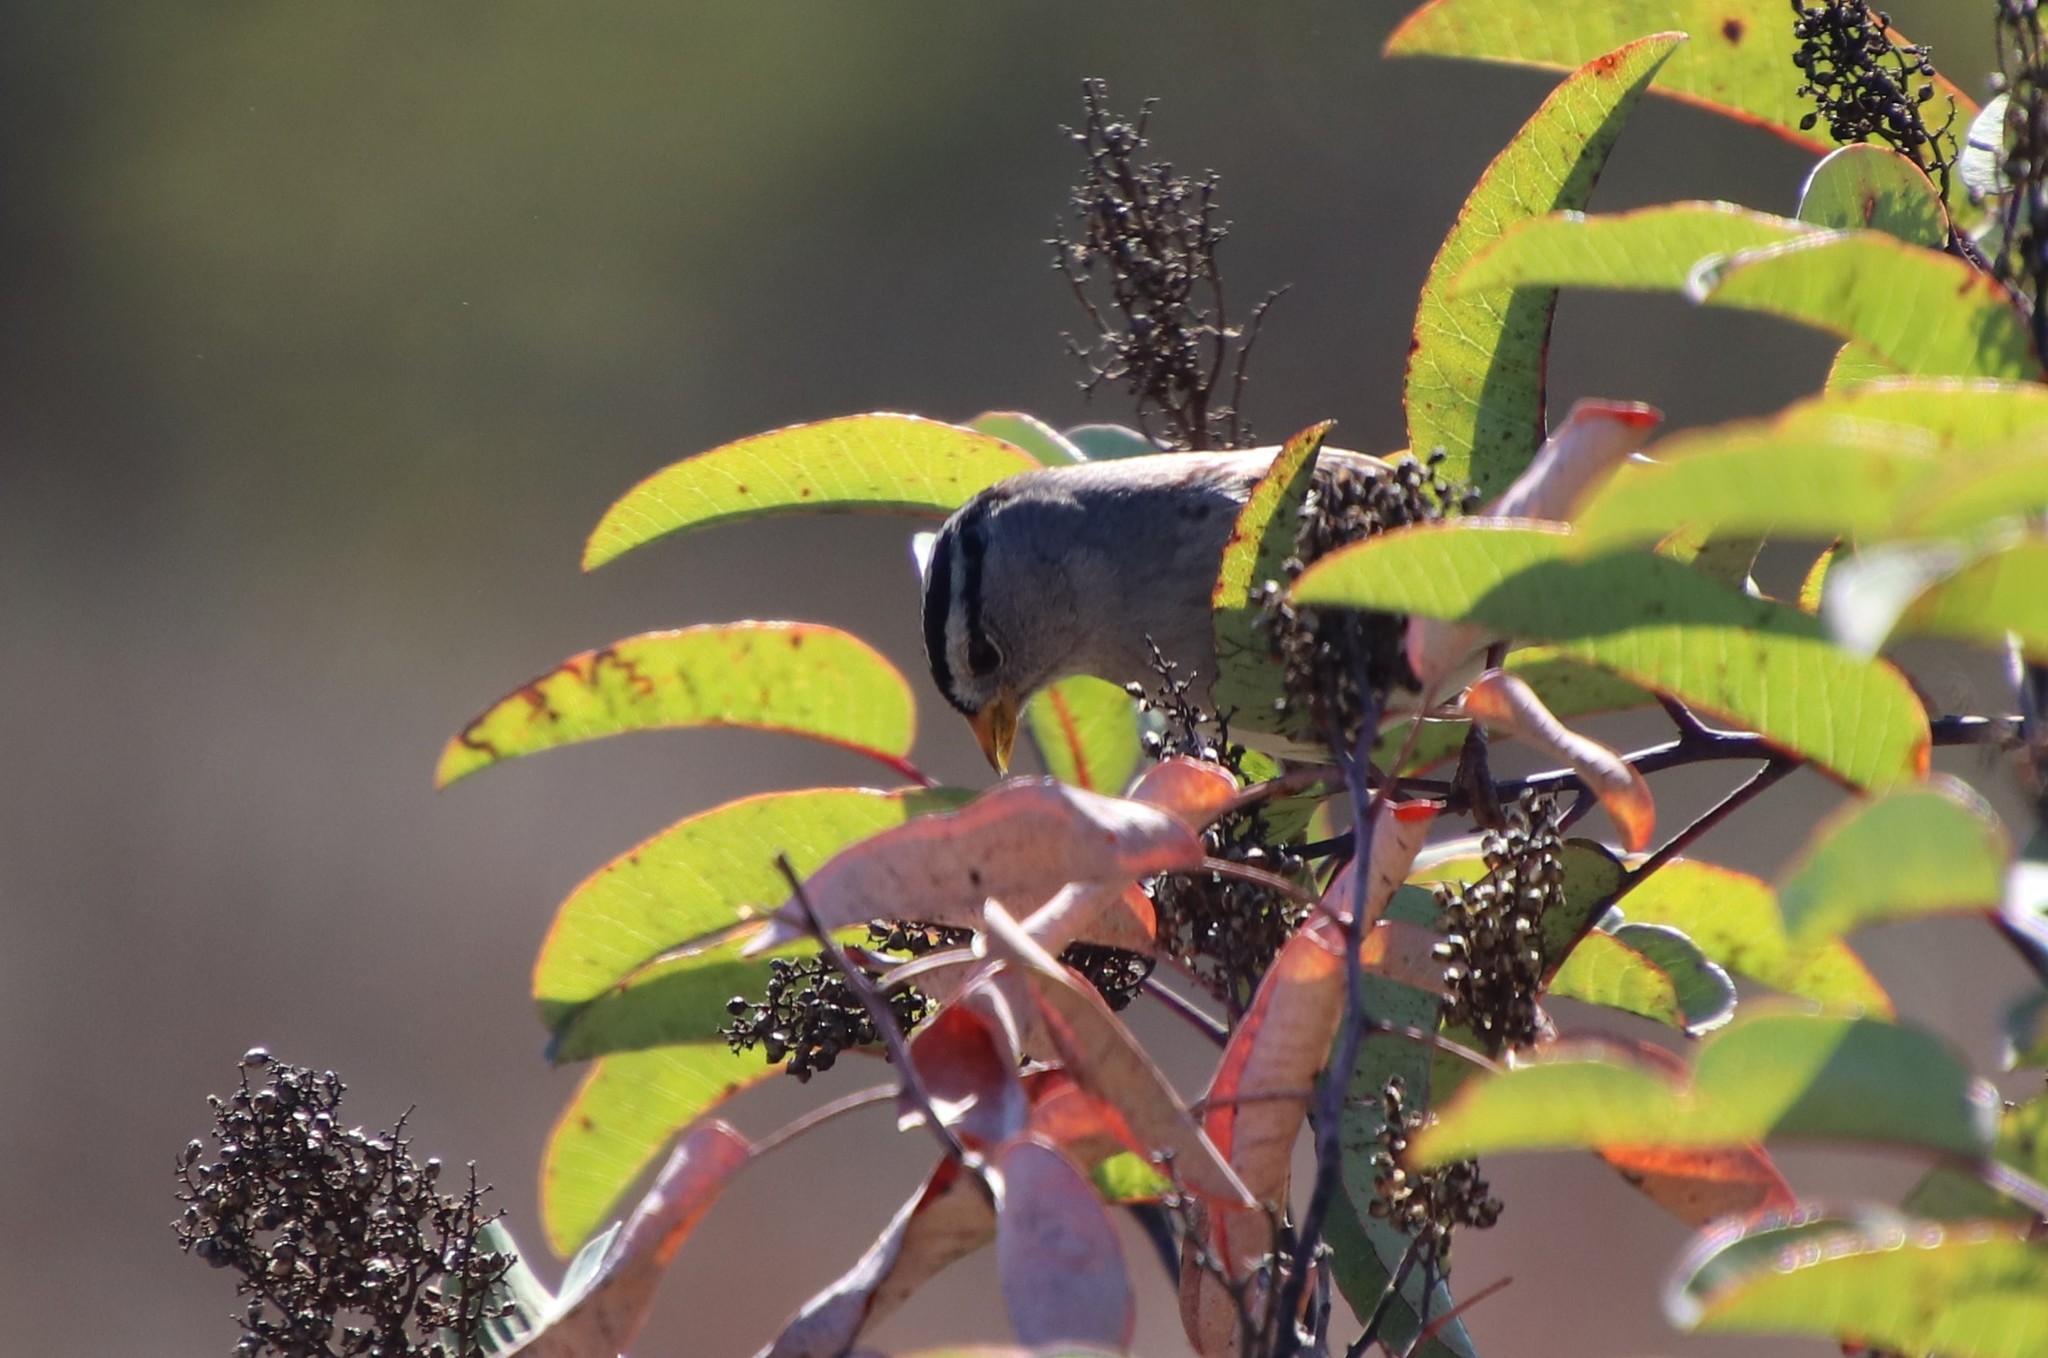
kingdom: Animalia
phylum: Chordata
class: Aves
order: Passeriformes
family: Passerellidae
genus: Zonotrichia
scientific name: Zonotrichia leucophrys
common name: White-crowned sparrow
